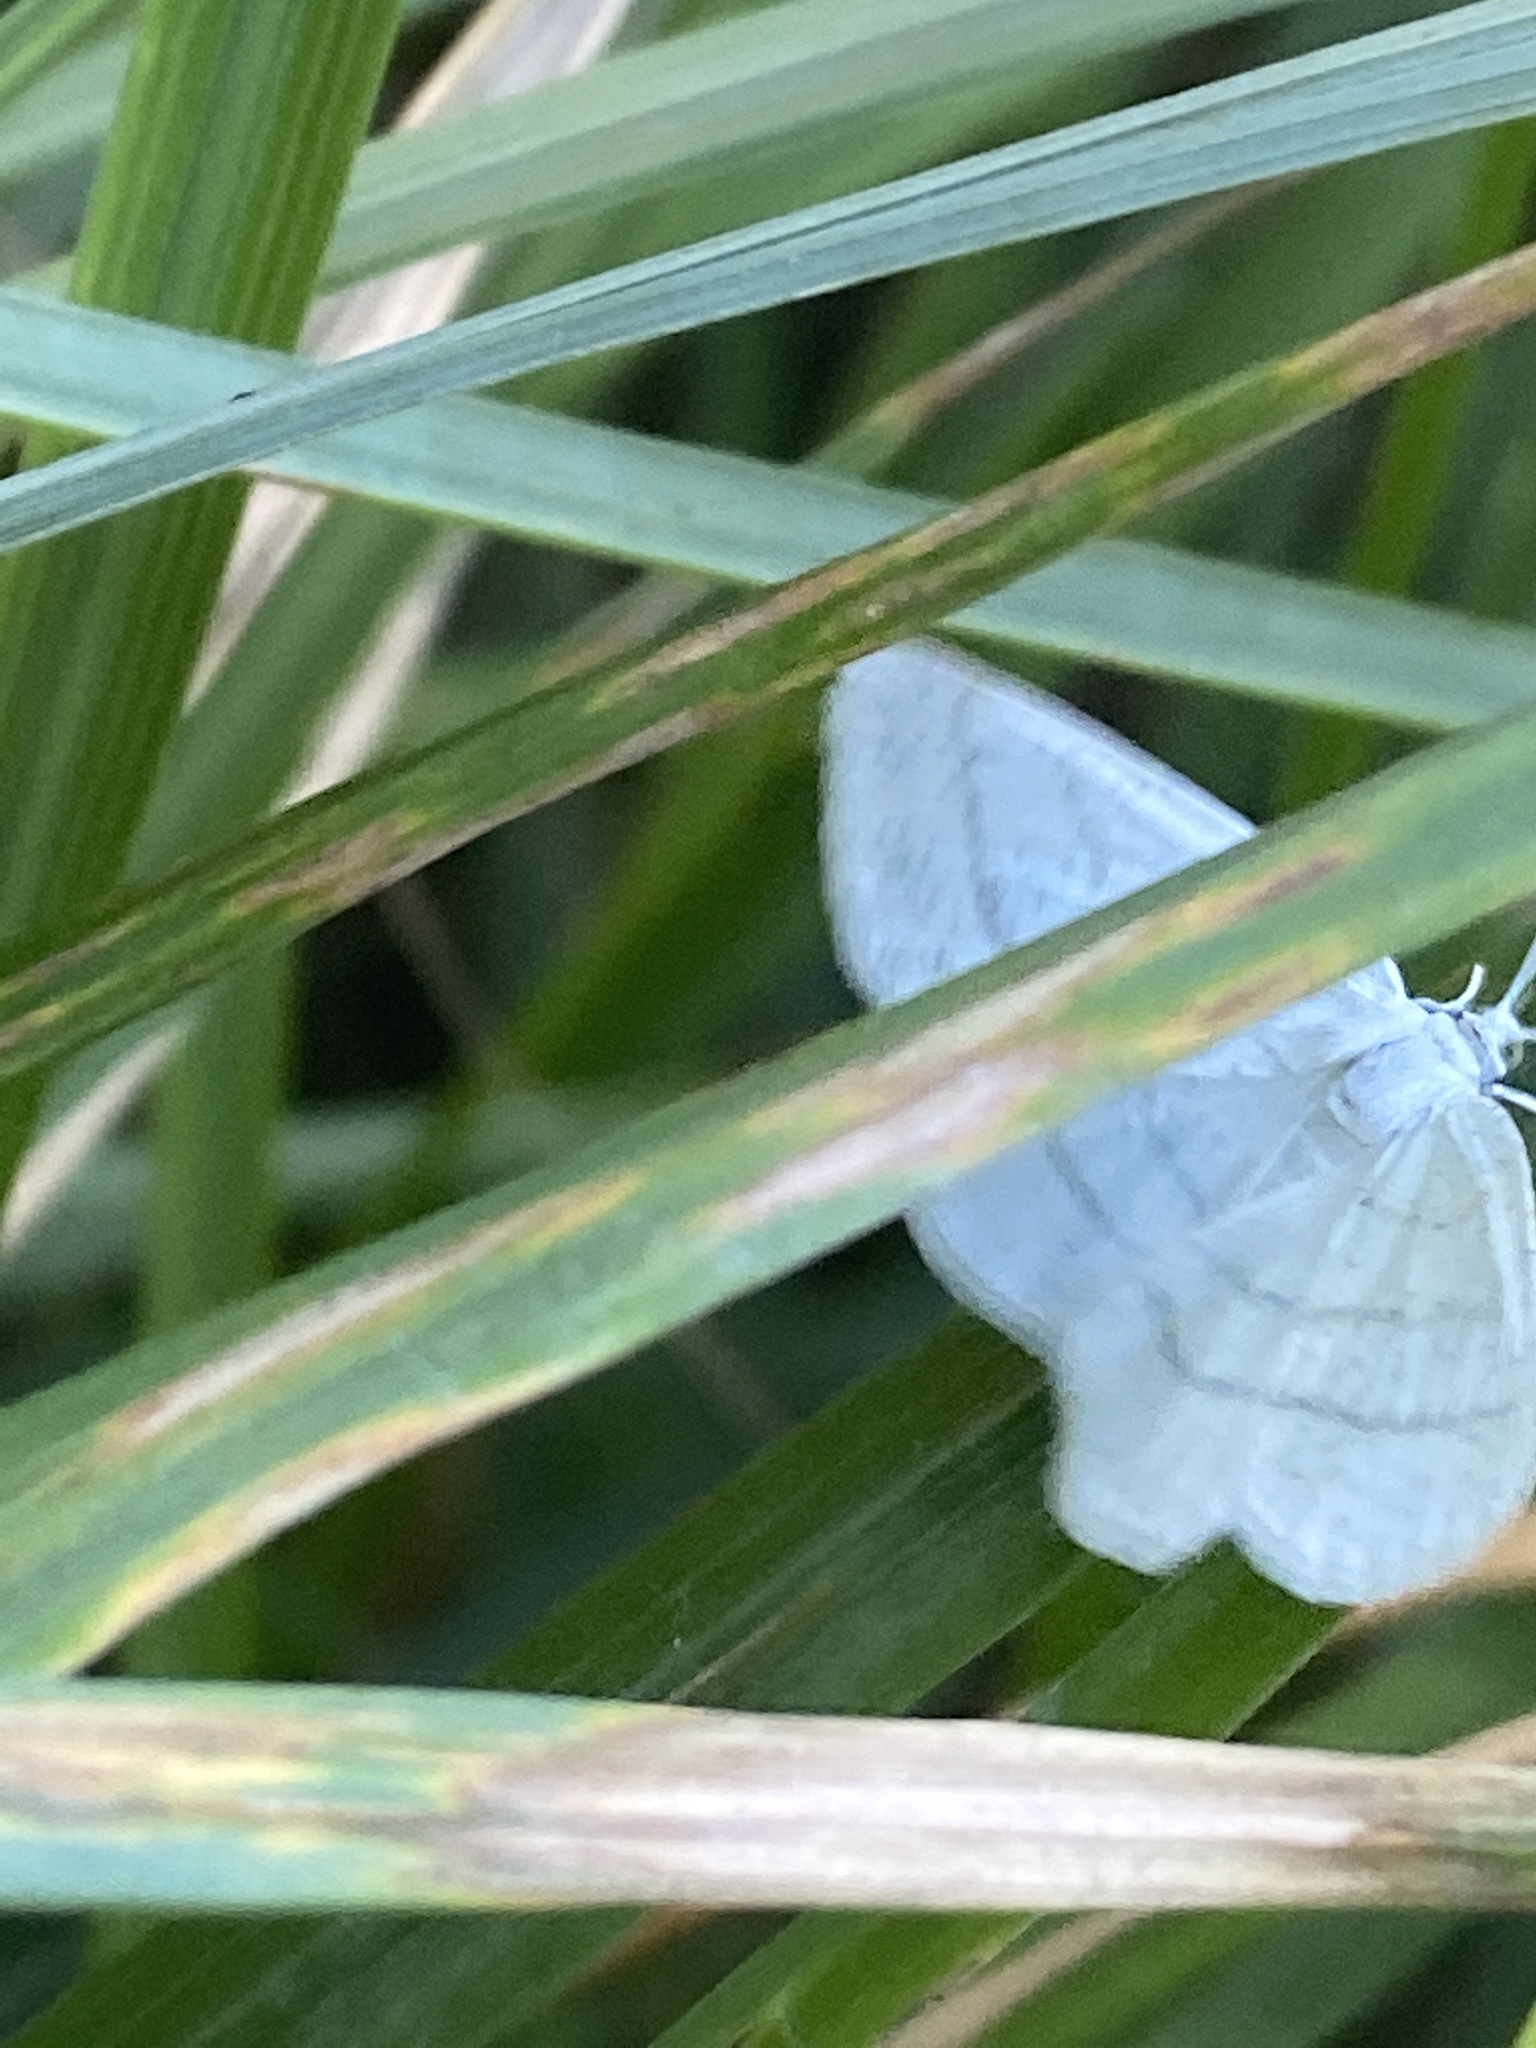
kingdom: Animalia
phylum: Arthropoda
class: Insecta
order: Lepidoptera
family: Geometridae
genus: Cabera
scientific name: Cabera pusaria
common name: Common white wave
